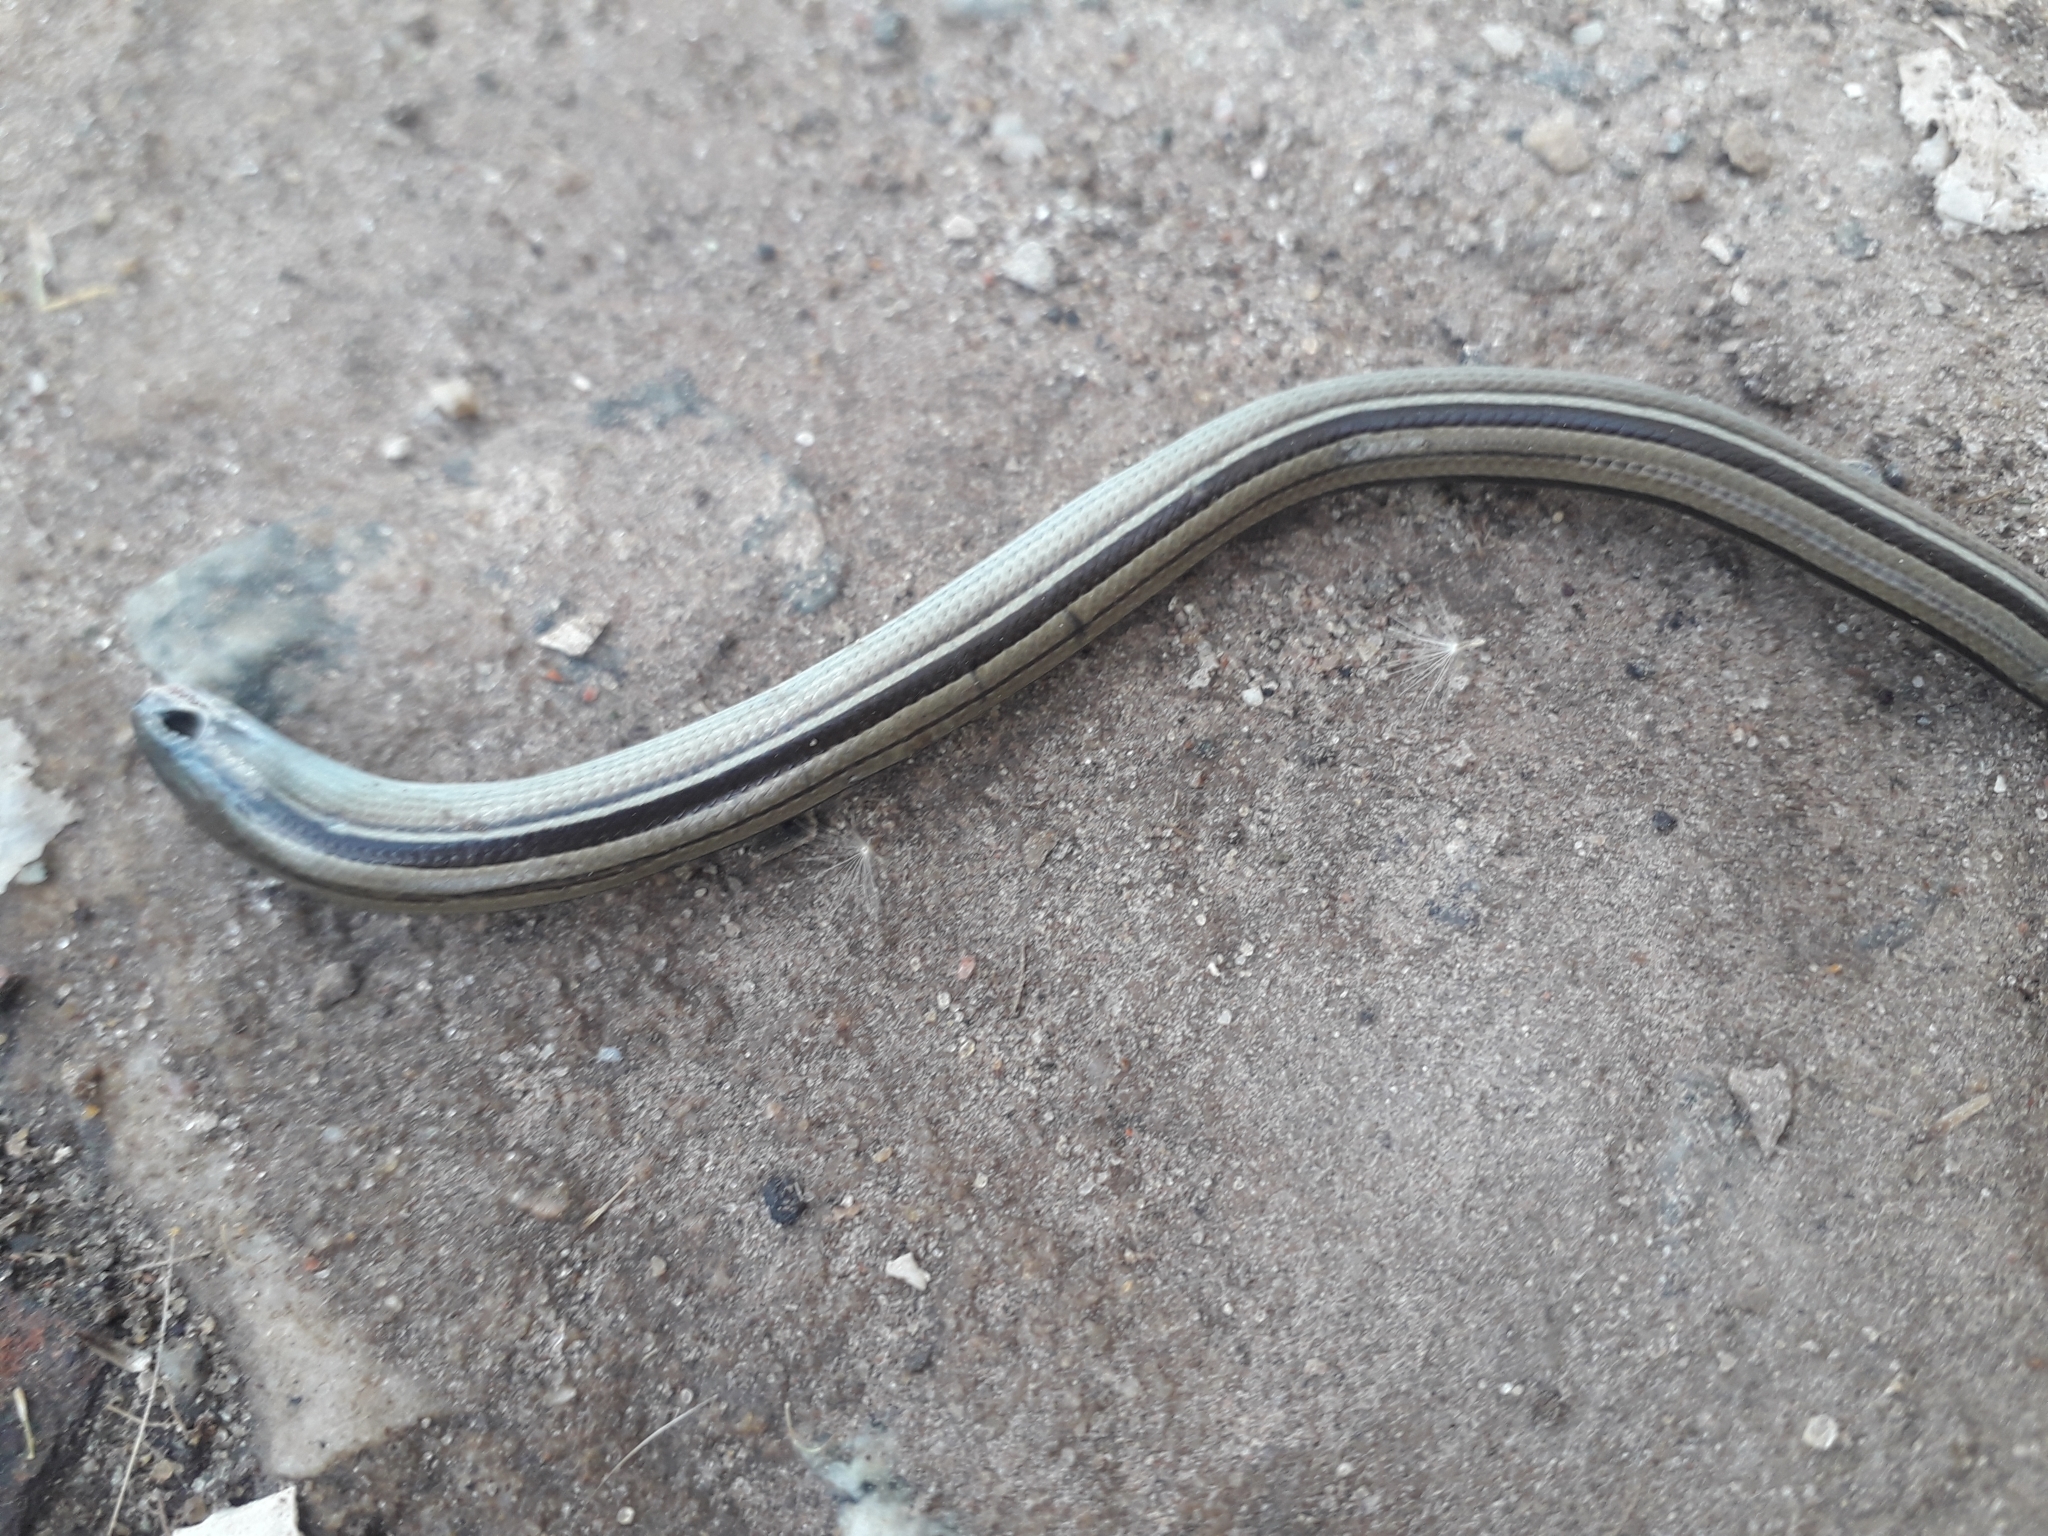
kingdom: Animalia
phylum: Chordata
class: Squamata
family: Diploglossidae
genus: Ophiodes
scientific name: Ophiodes vertebralis
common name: Jointed worm lizard
